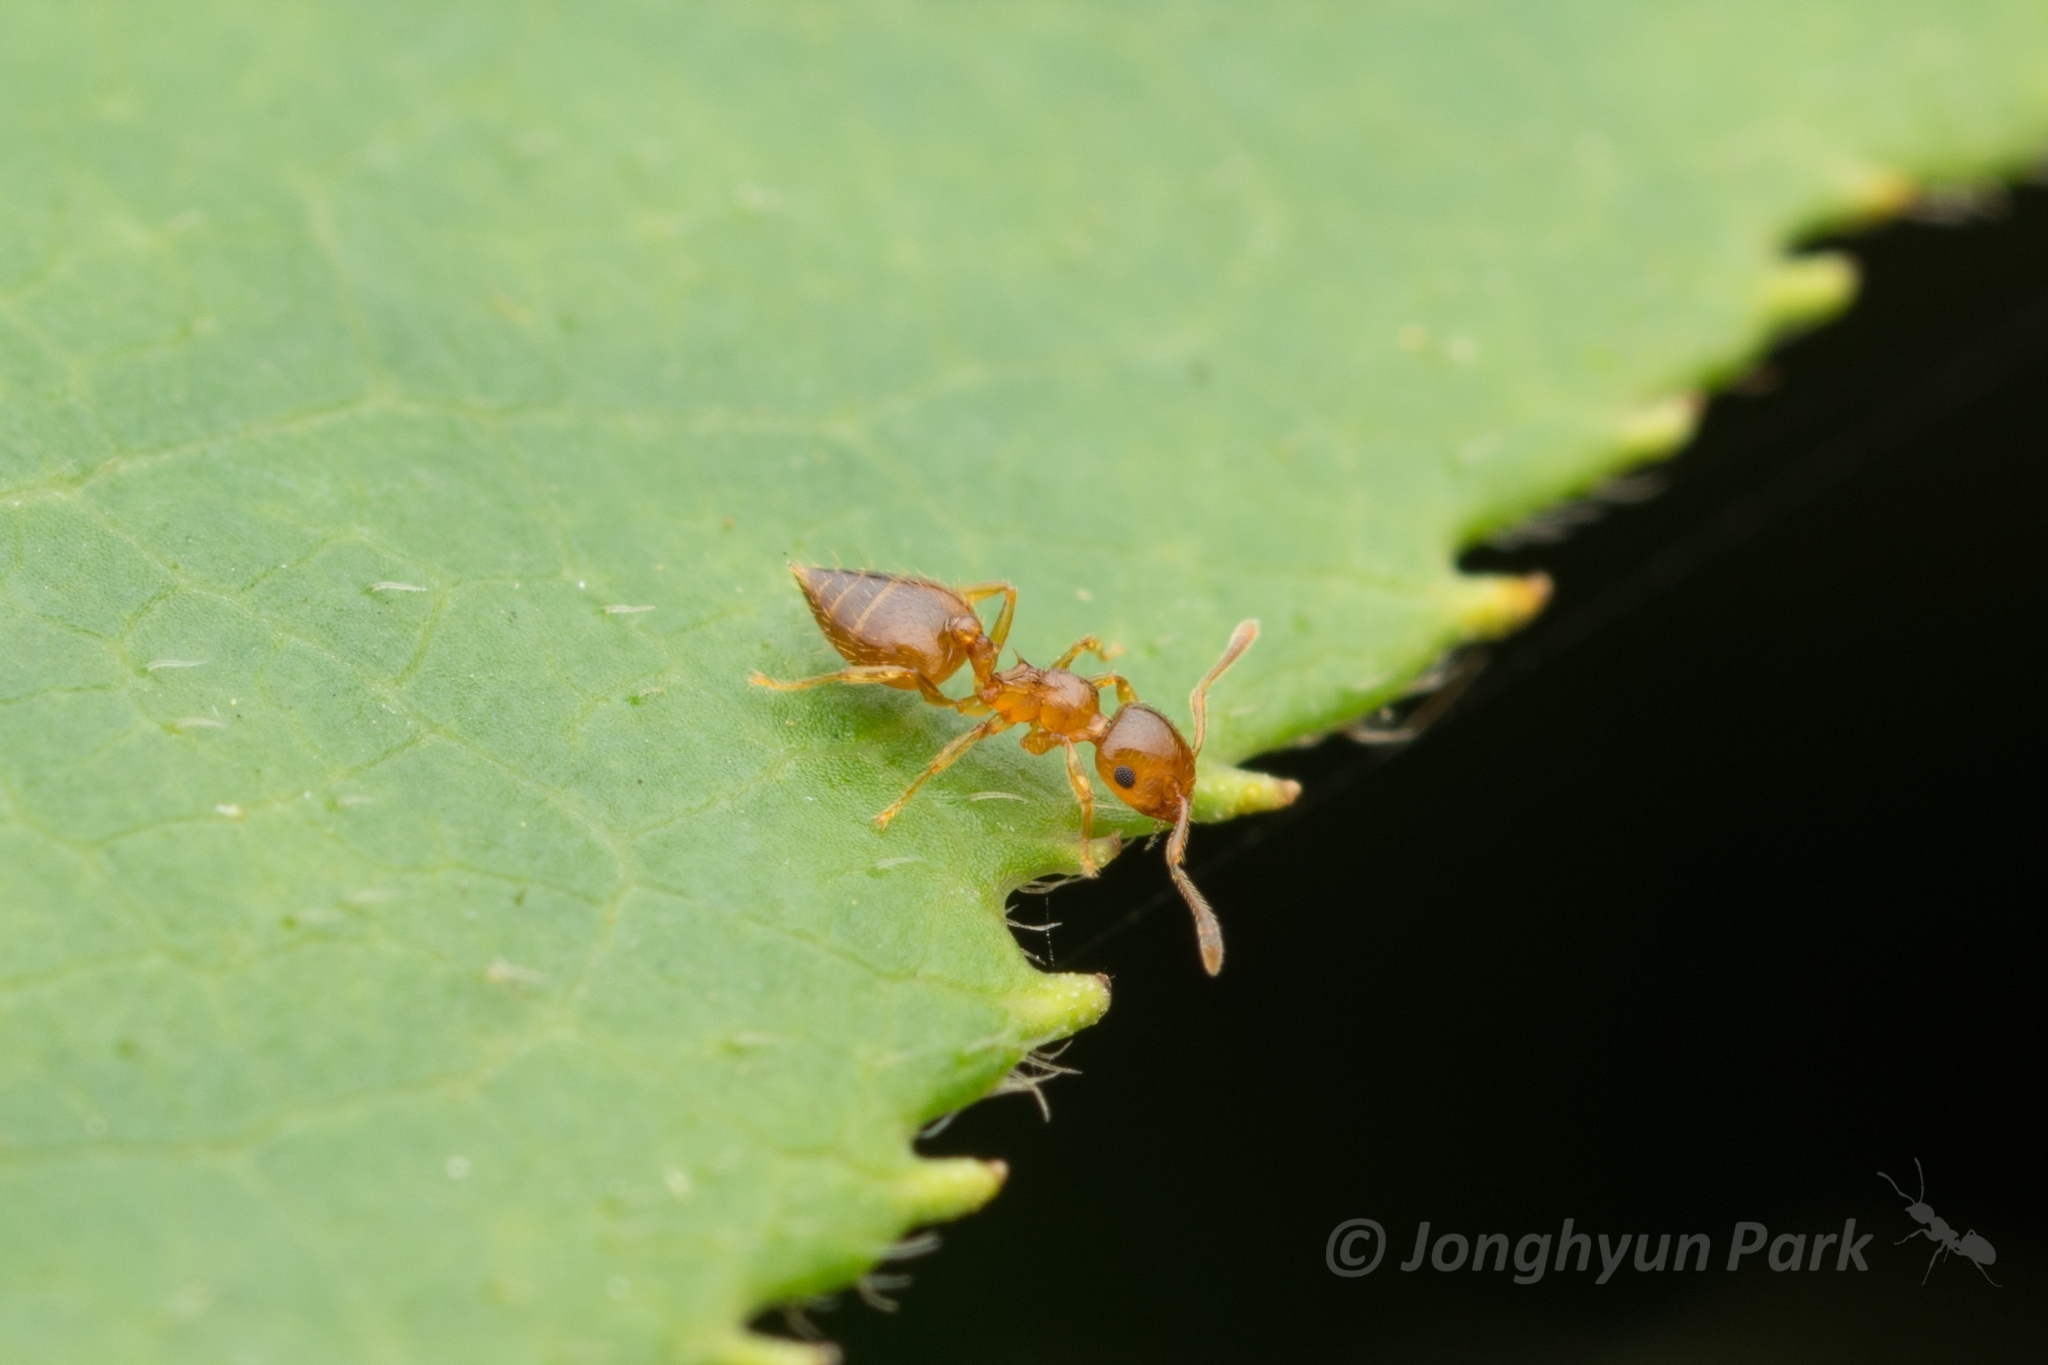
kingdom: Animalia
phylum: Arthropoda
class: Insecta
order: Hymenoptera
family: Formicidae
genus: Crematogaster
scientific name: Crematogaster osakensis
